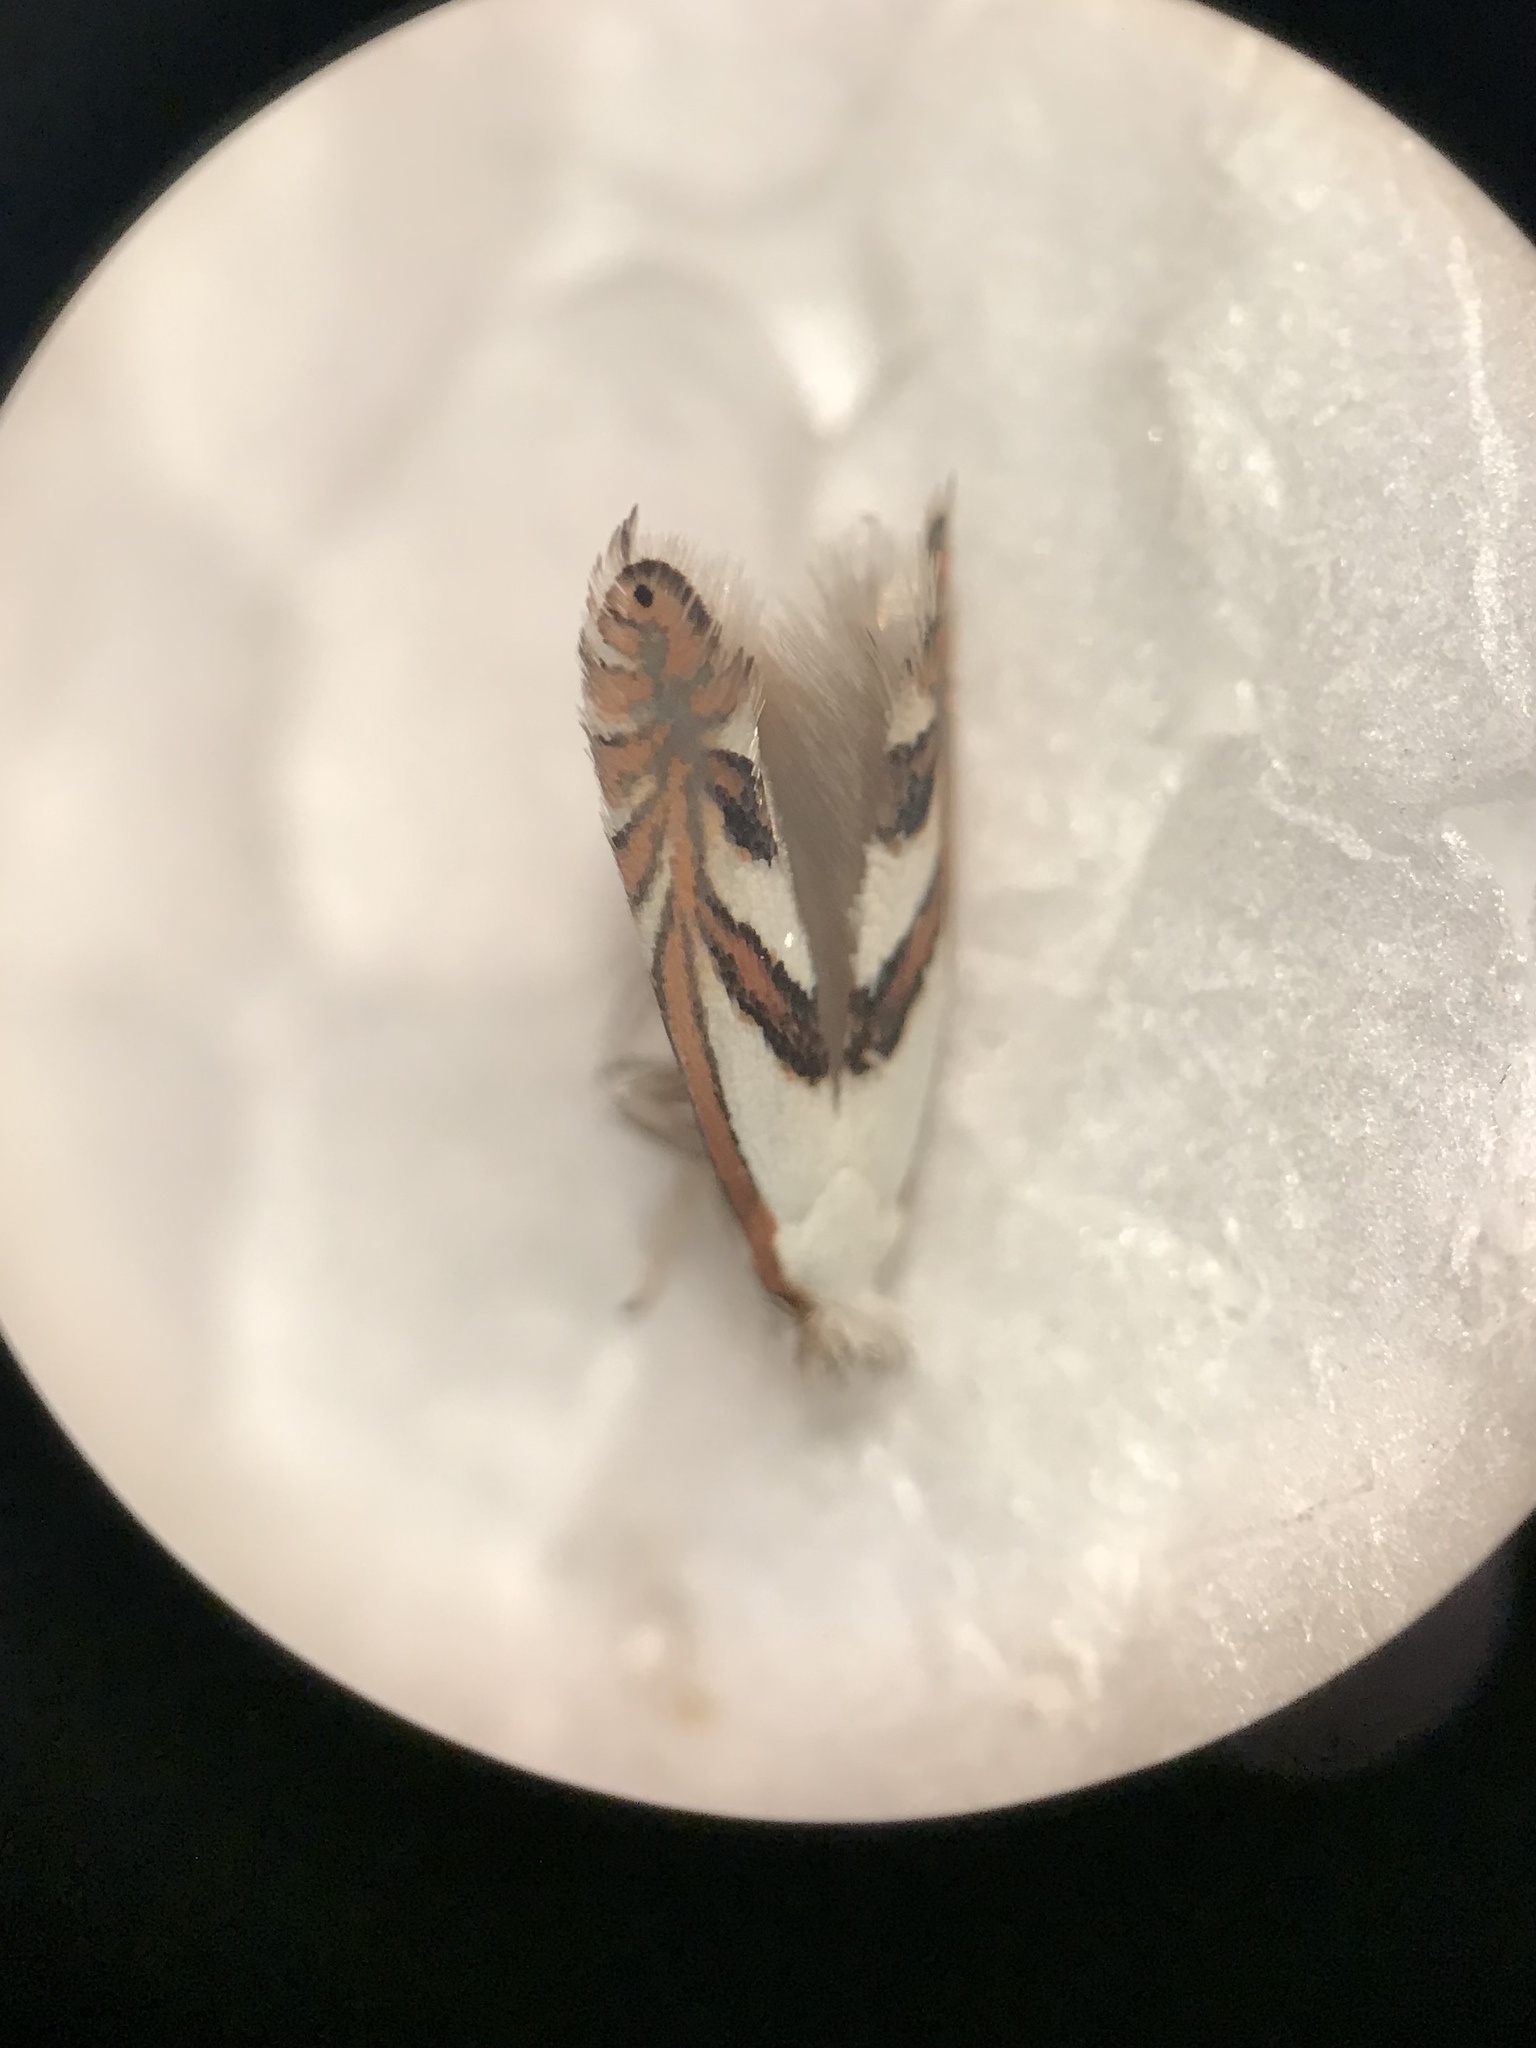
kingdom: Animalia
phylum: Arthropoda
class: Insecta
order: Lepidoptera
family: Gracillariidae
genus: Phyllonorycter
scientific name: Phyllonorycter hagenii
